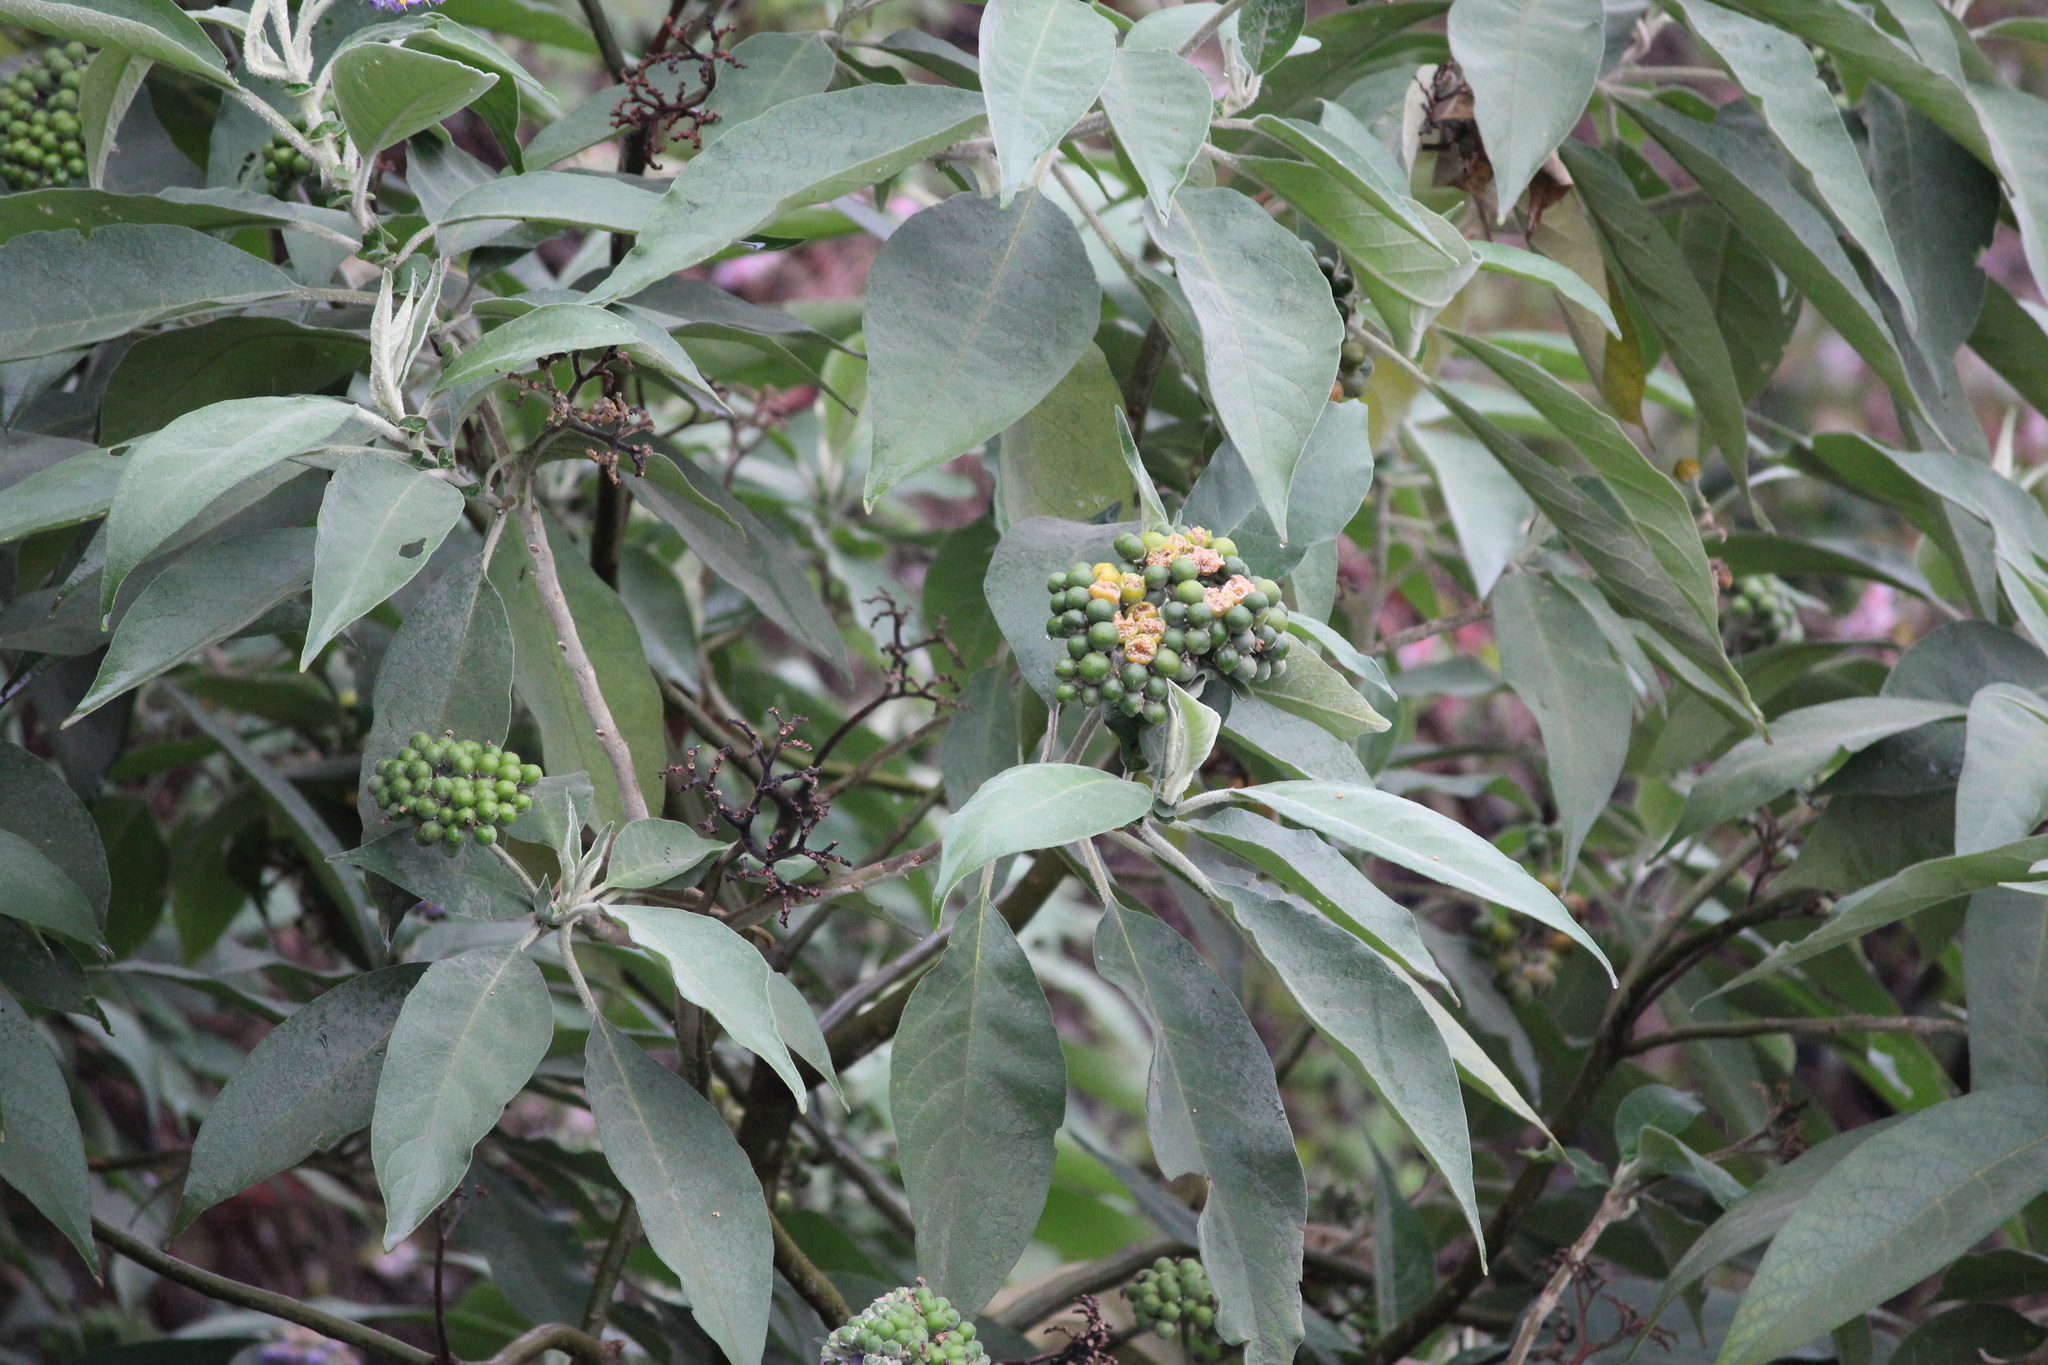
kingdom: Plantae
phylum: Tracheophyta
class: Magnoliopsida
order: Solanales
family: Solanaceae
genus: Solanum
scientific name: Solanum mauritianum
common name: Earleaf nightshade
